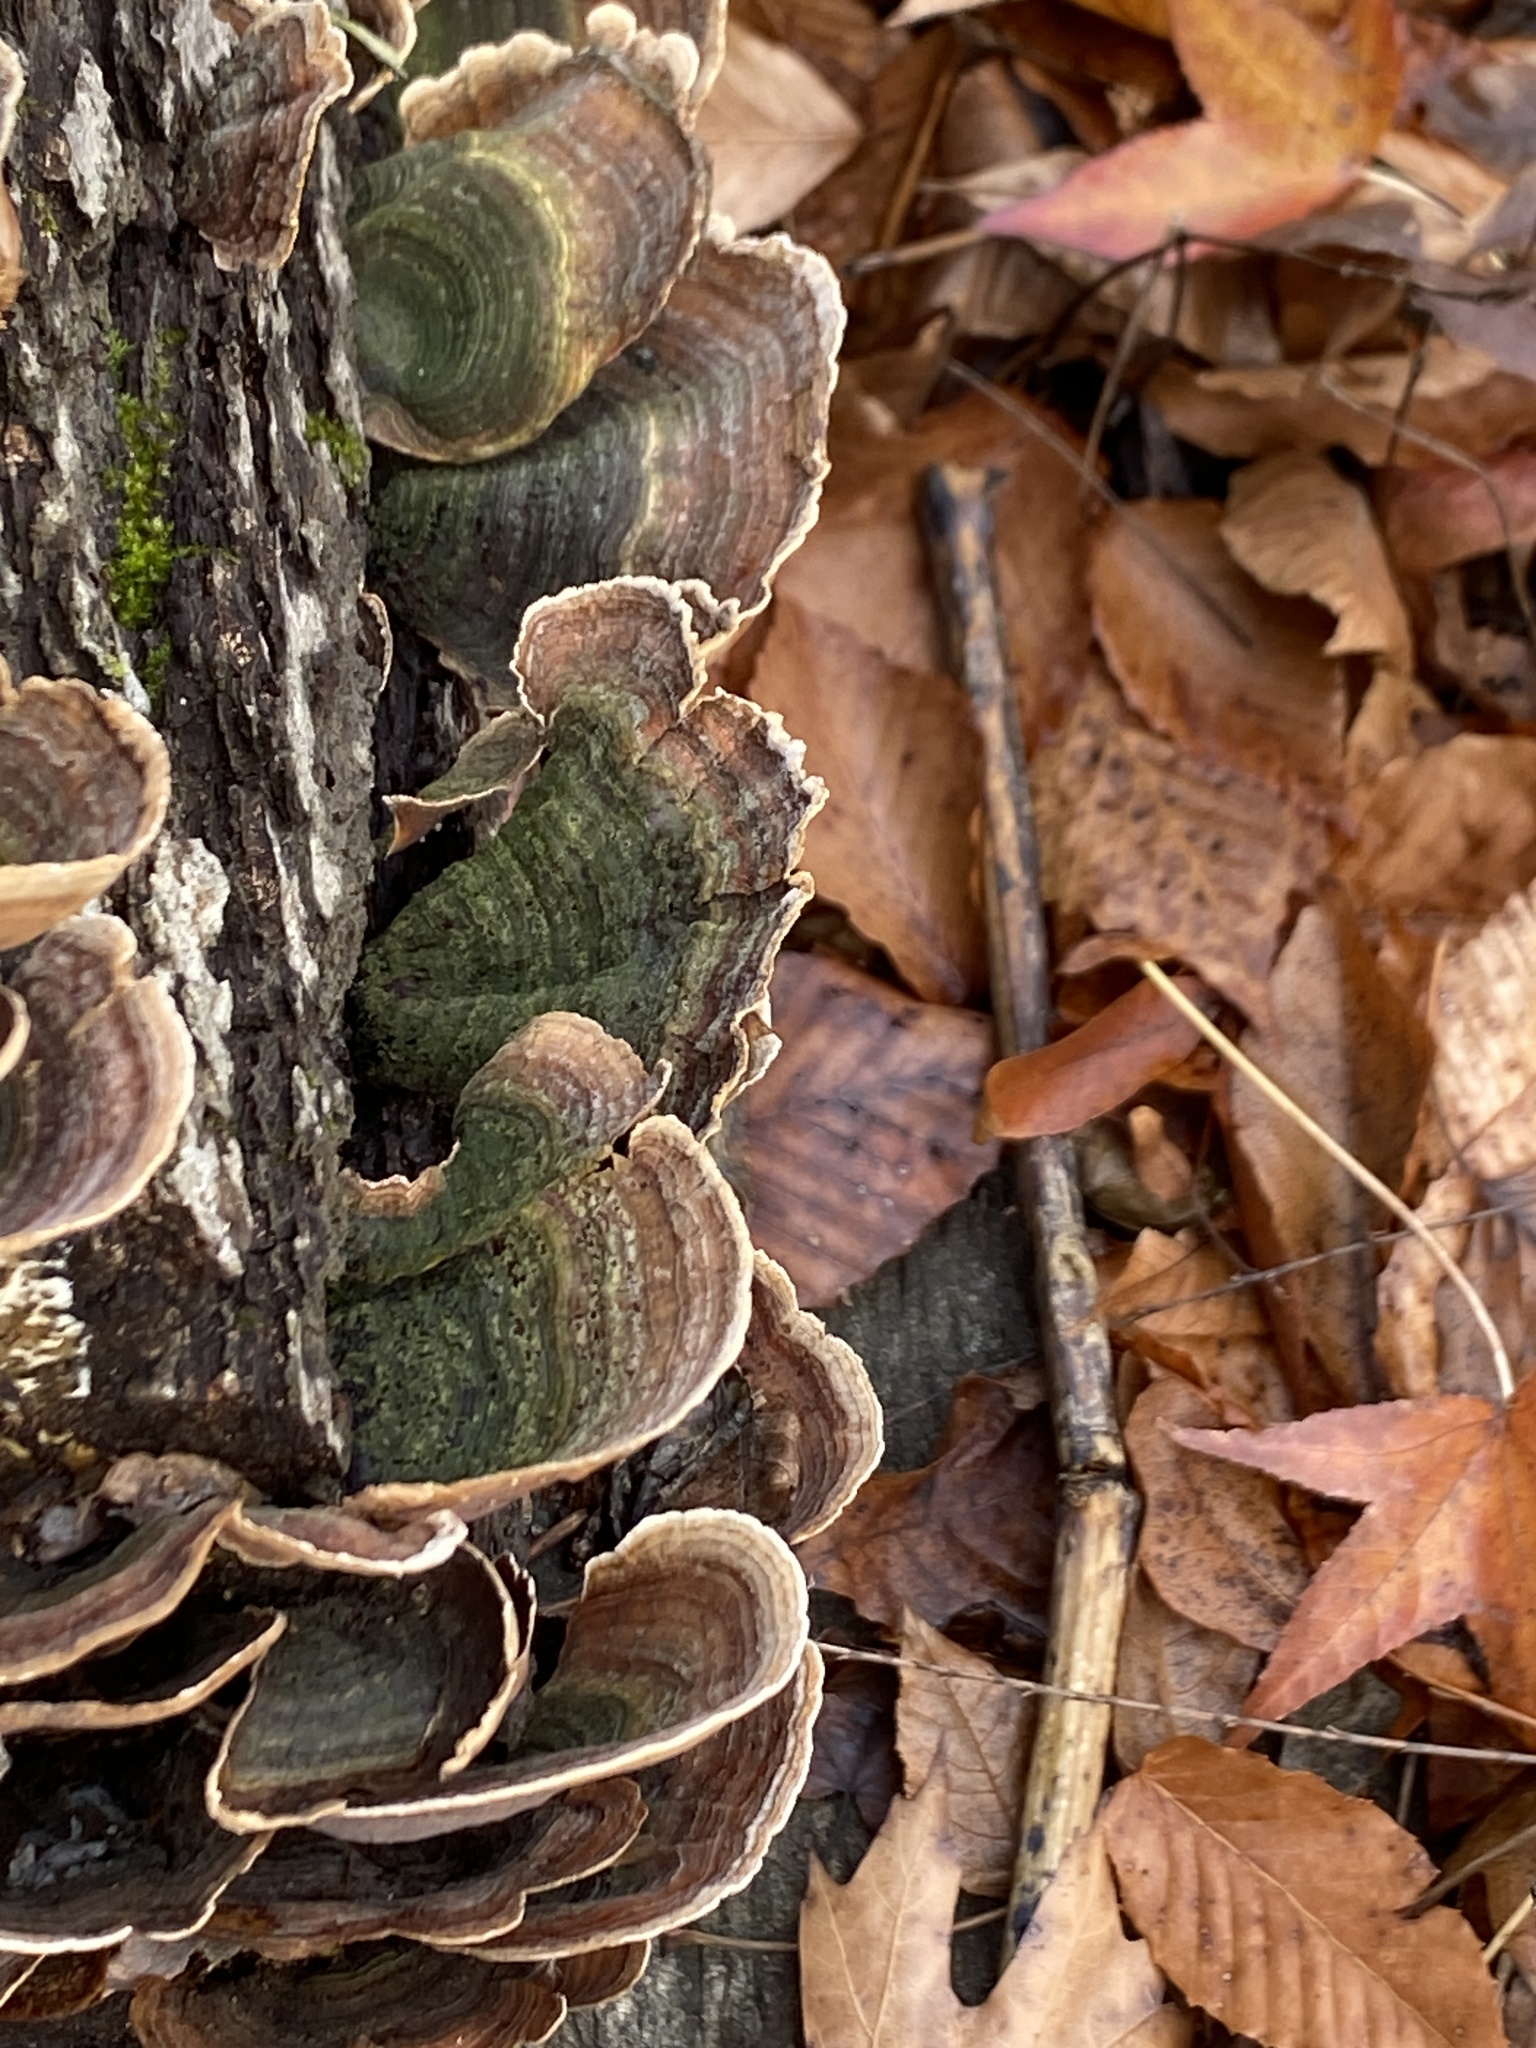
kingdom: Fungi
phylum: Basidiomycota
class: Agaricomycetes
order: Russulales
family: Stereaceae
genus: Stereum
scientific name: Stereum ostrea
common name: False turkeytail
